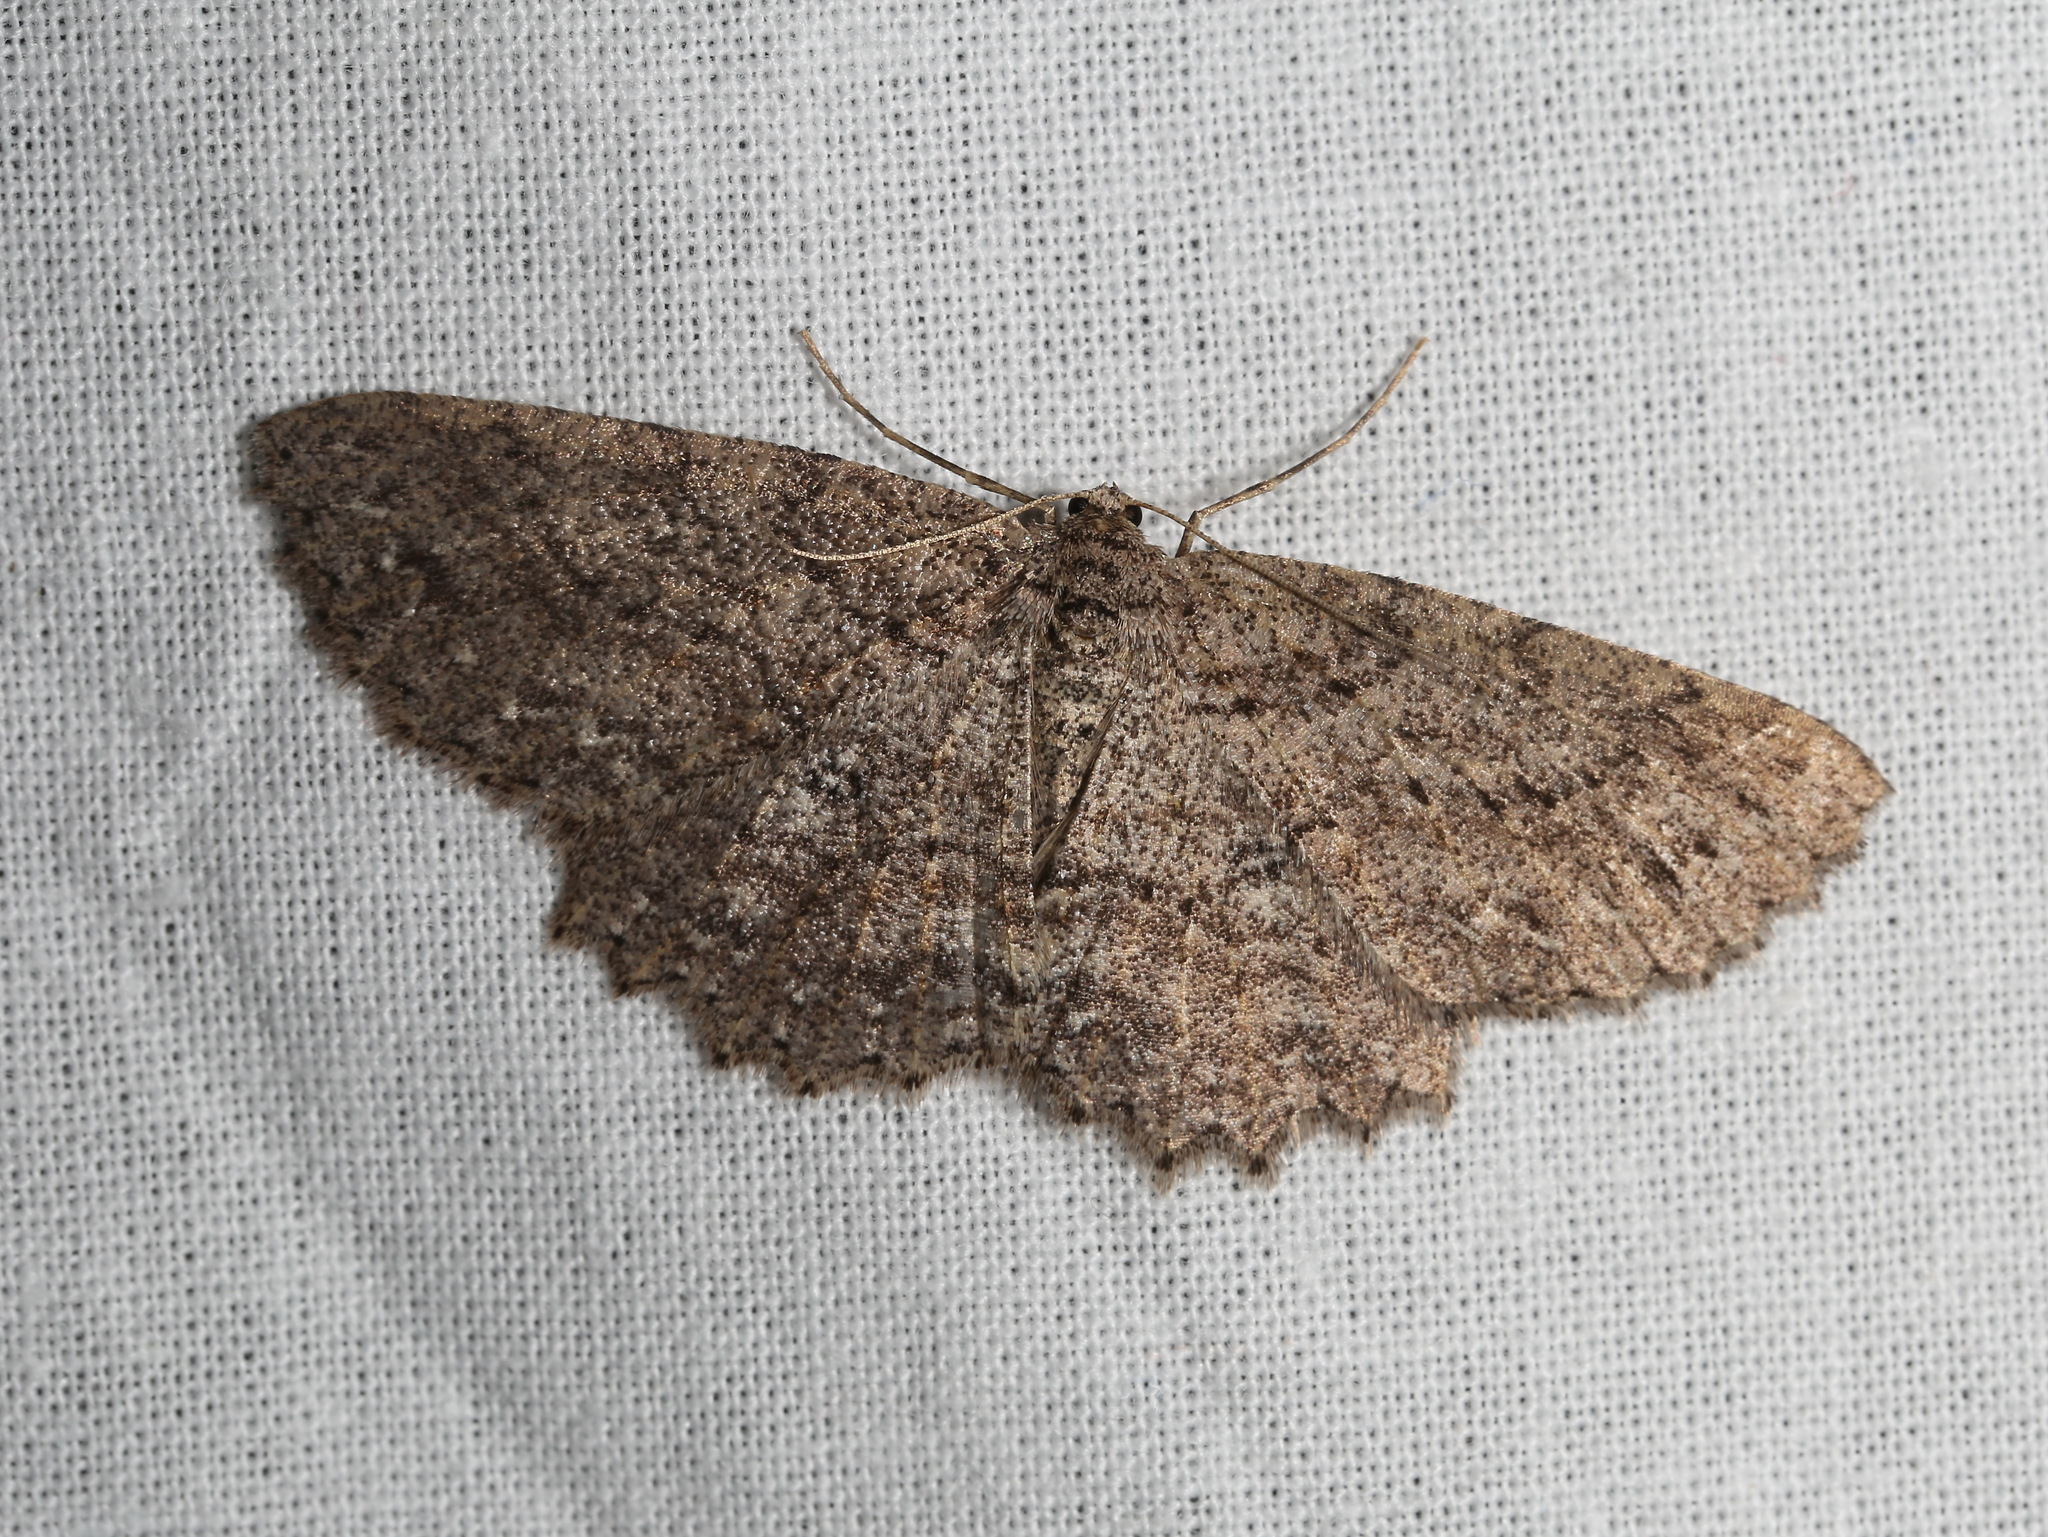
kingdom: Animalia
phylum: Arthropoda
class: Insecta
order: Lepidoptera
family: Geometridae
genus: Ectropis
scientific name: Ectropis despicata
